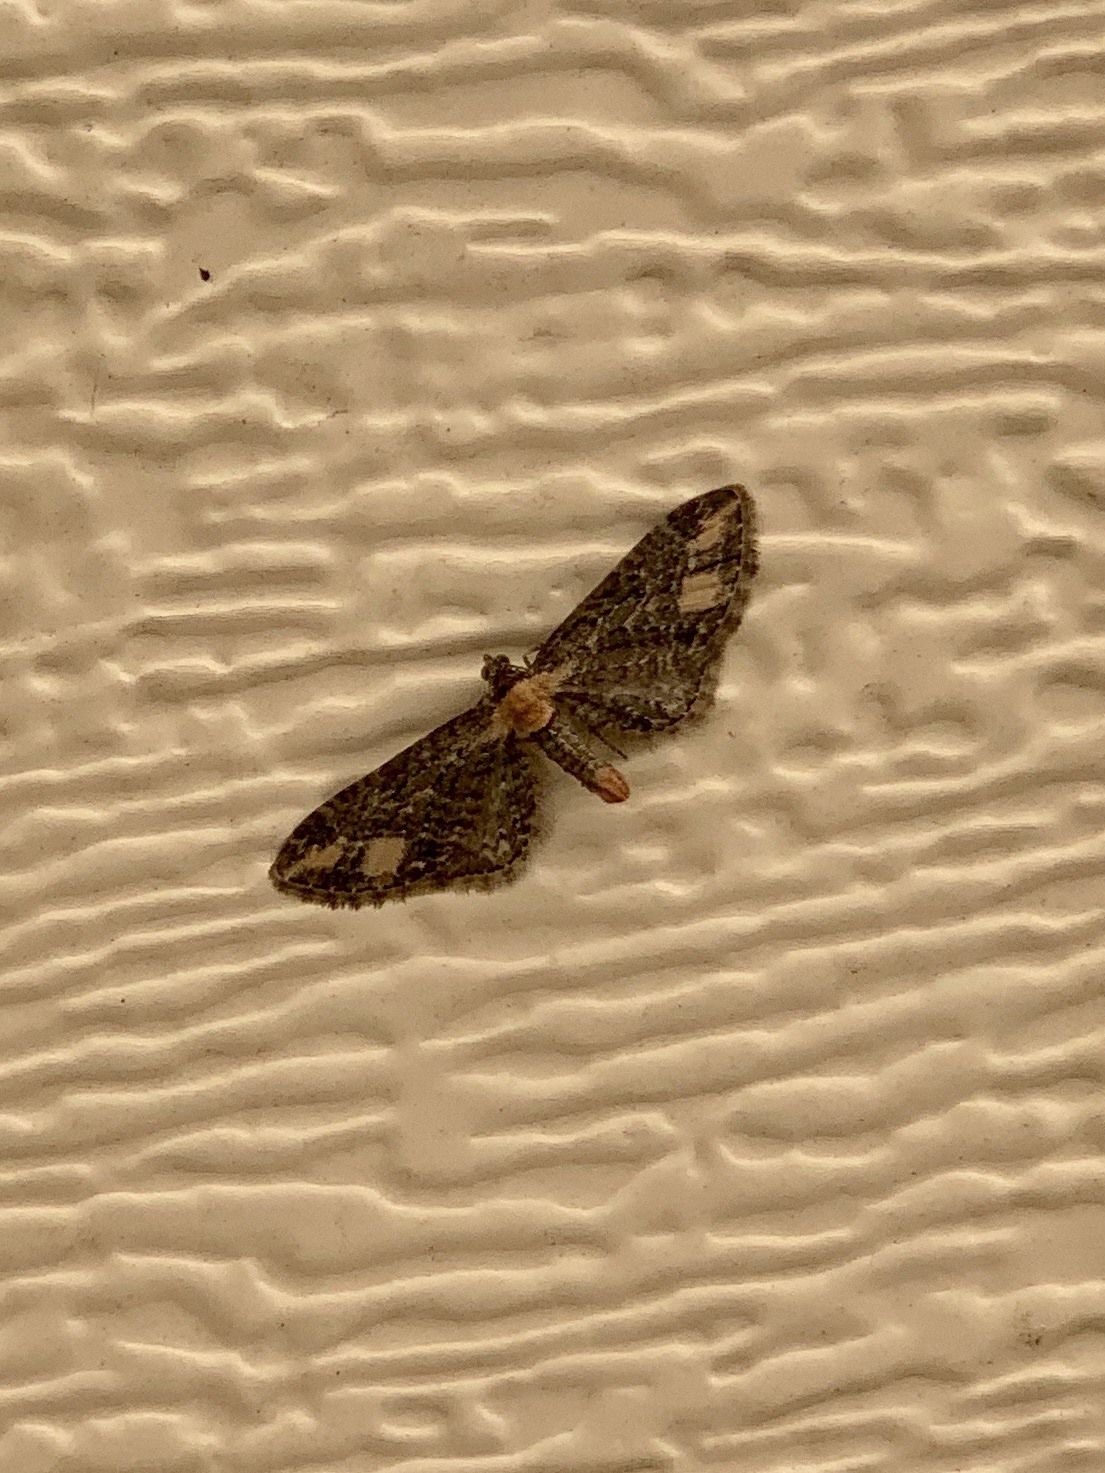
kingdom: Animalia
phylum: Arthropoda
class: Insecta
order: Lepidoptera
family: Geometridae
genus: Eupithecia
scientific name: Eupithecia flavigutta
